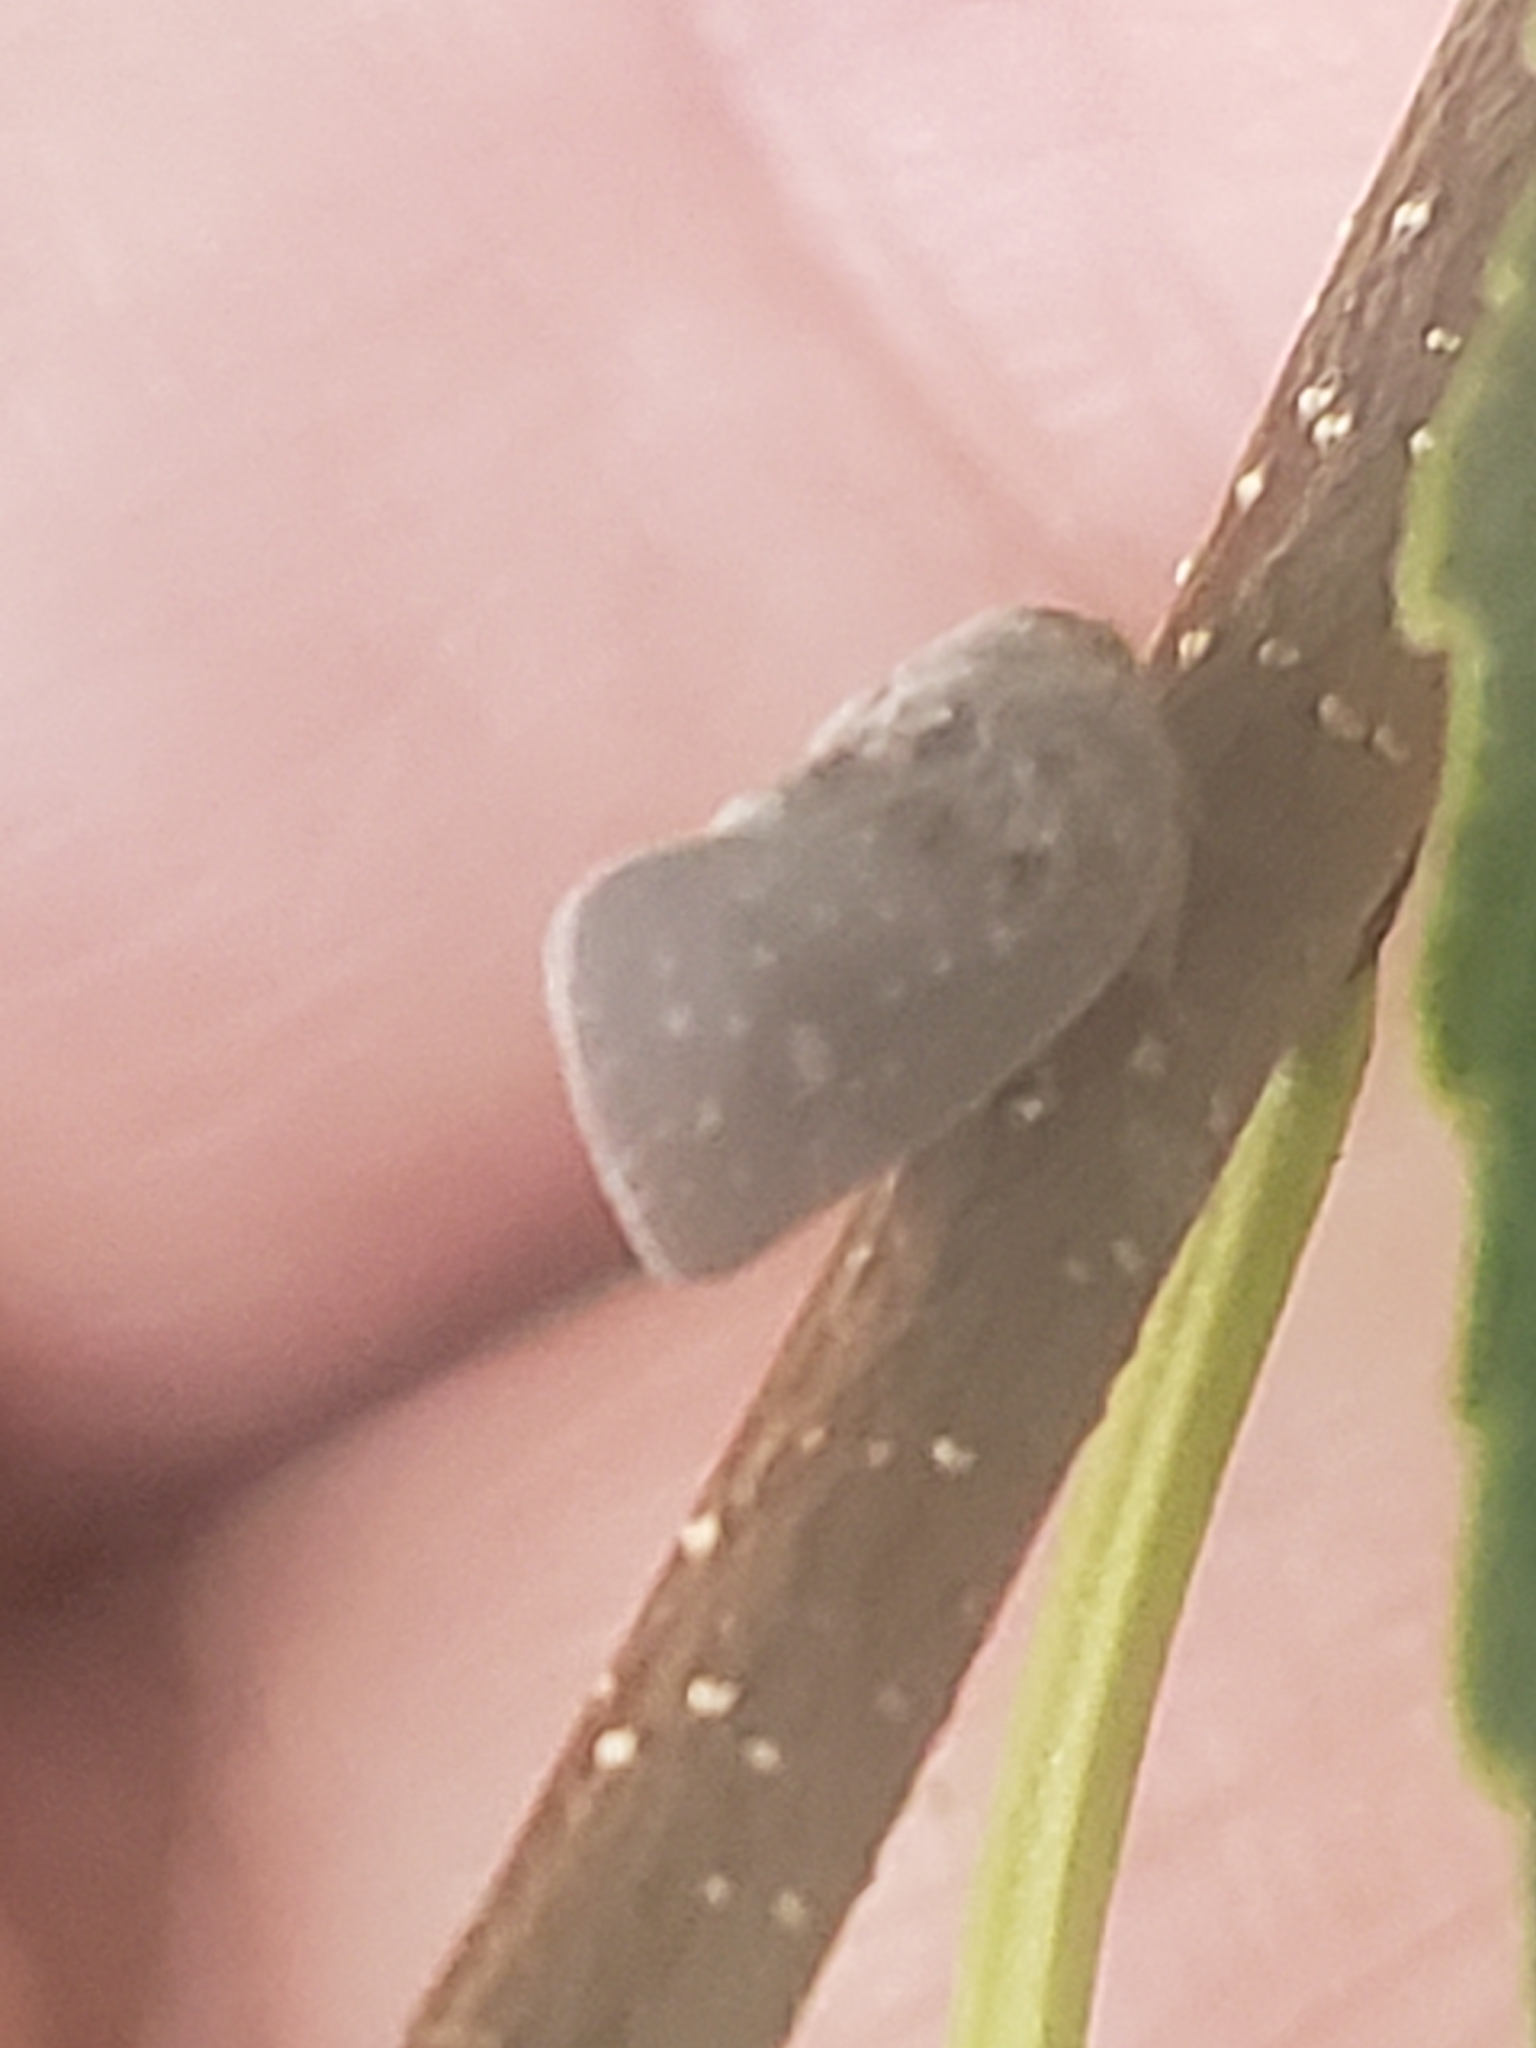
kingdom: Animalia
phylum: Arthropoda
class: Insecta
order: Hemiptera
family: Flatidae
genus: Metcalfa
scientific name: Metcalfa pruinosa
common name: Citrus flatid planthopper
